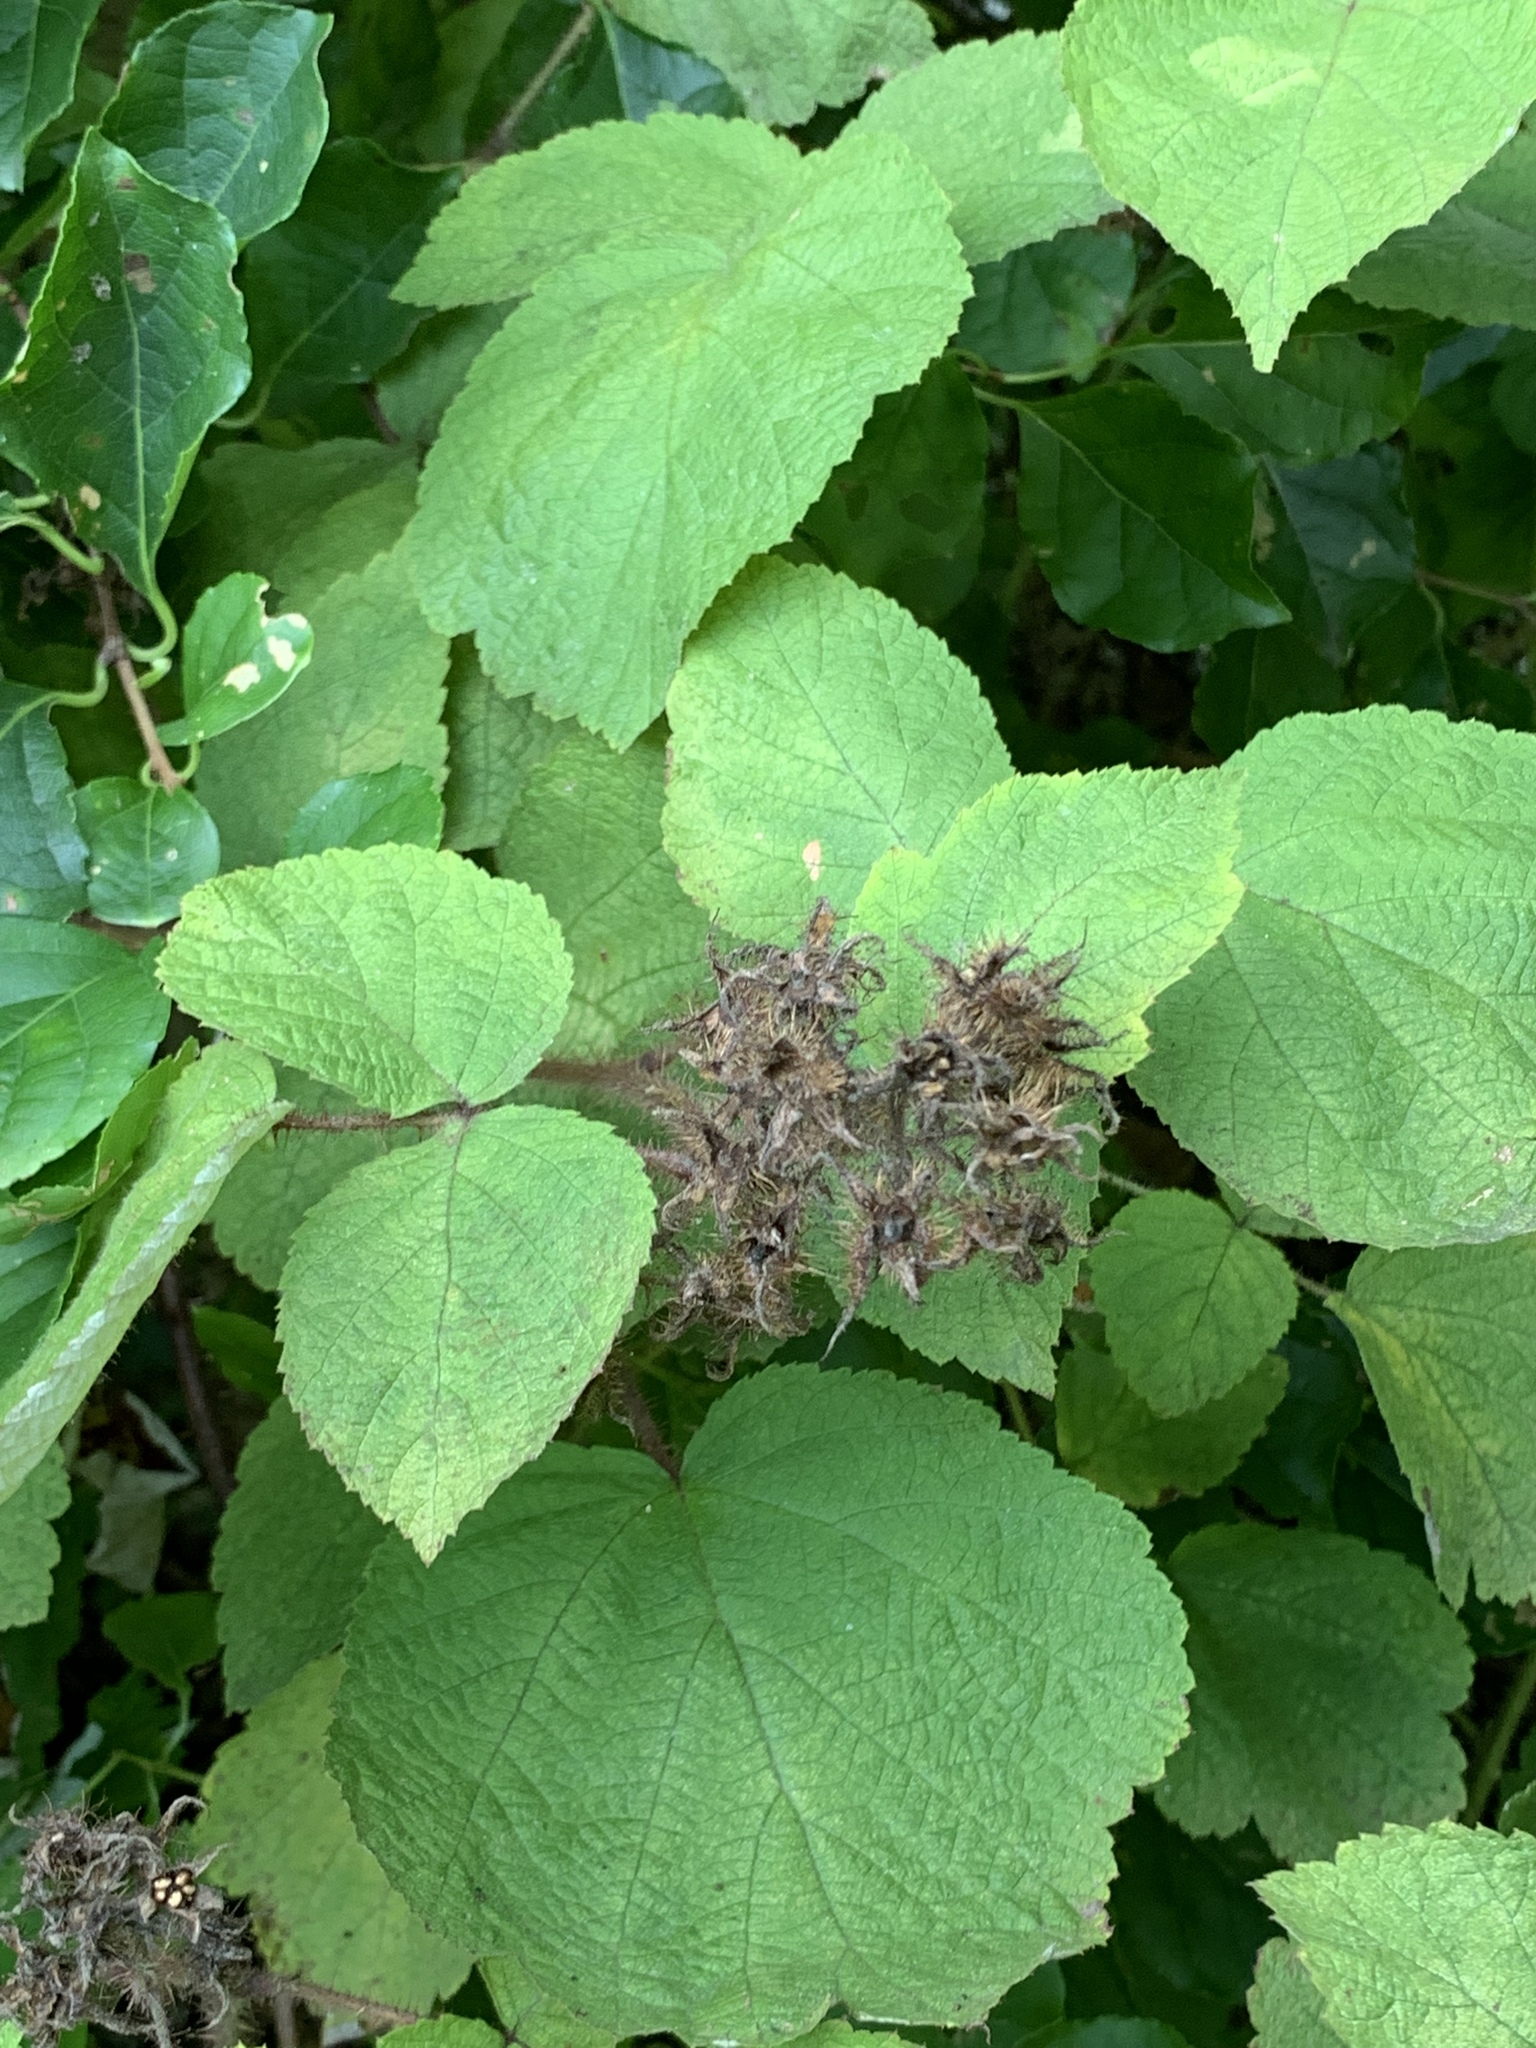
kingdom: Plantae
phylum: Tracheophyta
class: Magnoliopsida
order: Rosales
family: Rosaceae
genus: Rubus
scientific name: Rubus phoenicolasius
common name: Japanese wineberry
